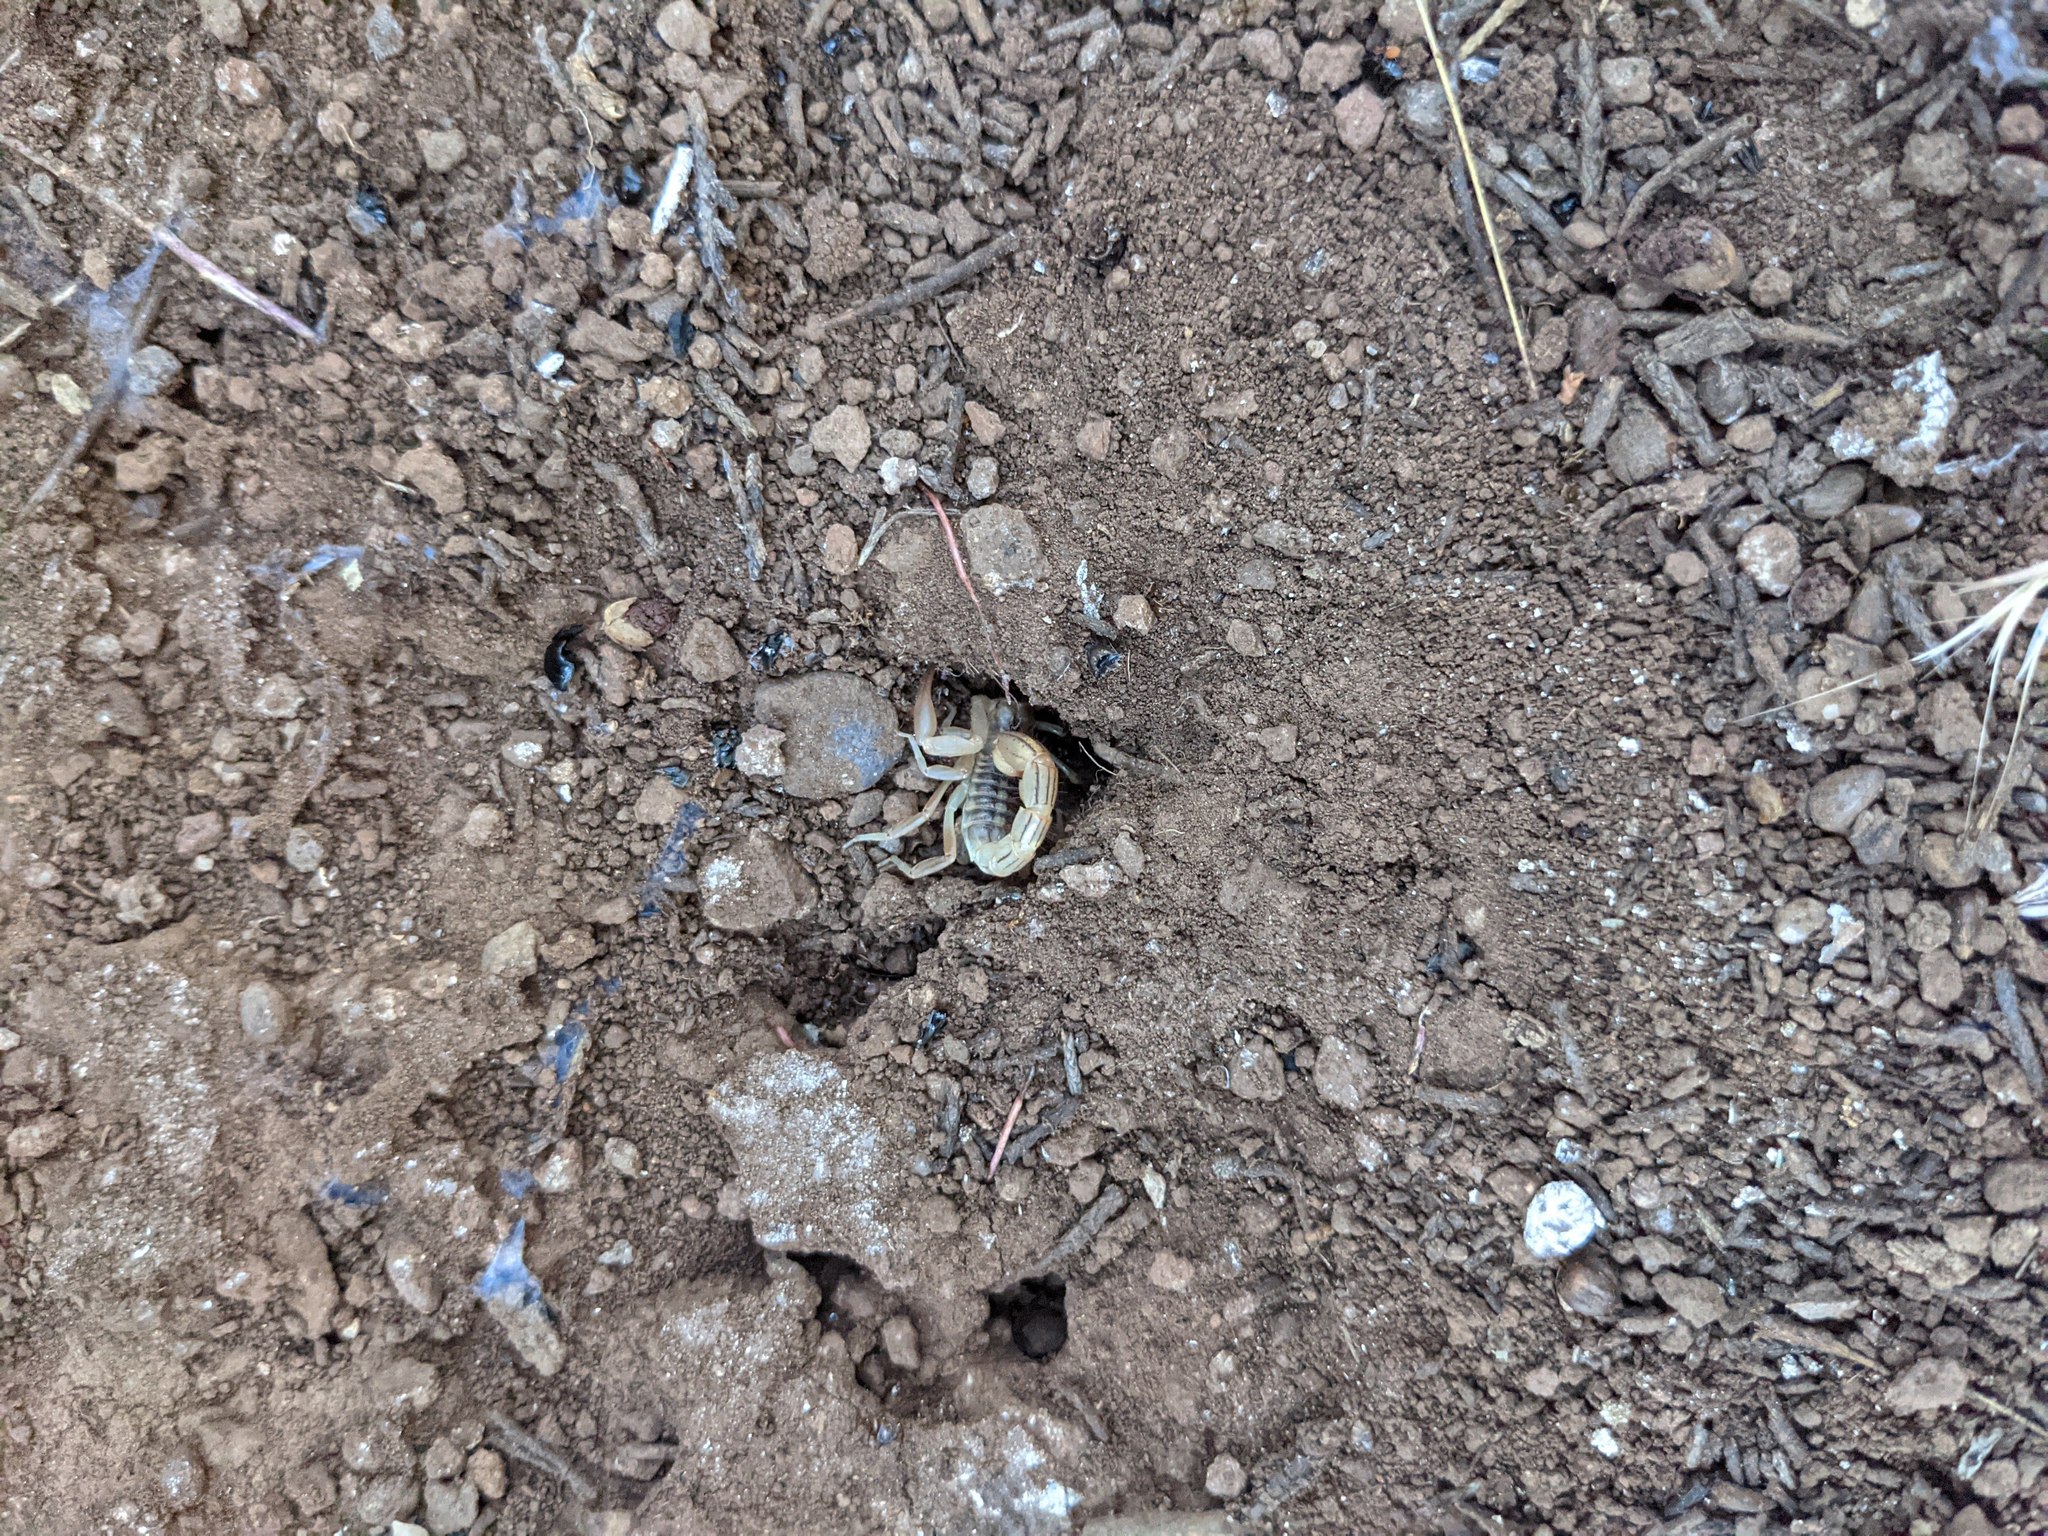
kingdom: Animalia
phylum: Arthropoda
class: Arachnida
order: Scorpiones
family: Vaejovidae
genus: Paravaejovis
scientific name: Paravaejovis spinigerus
